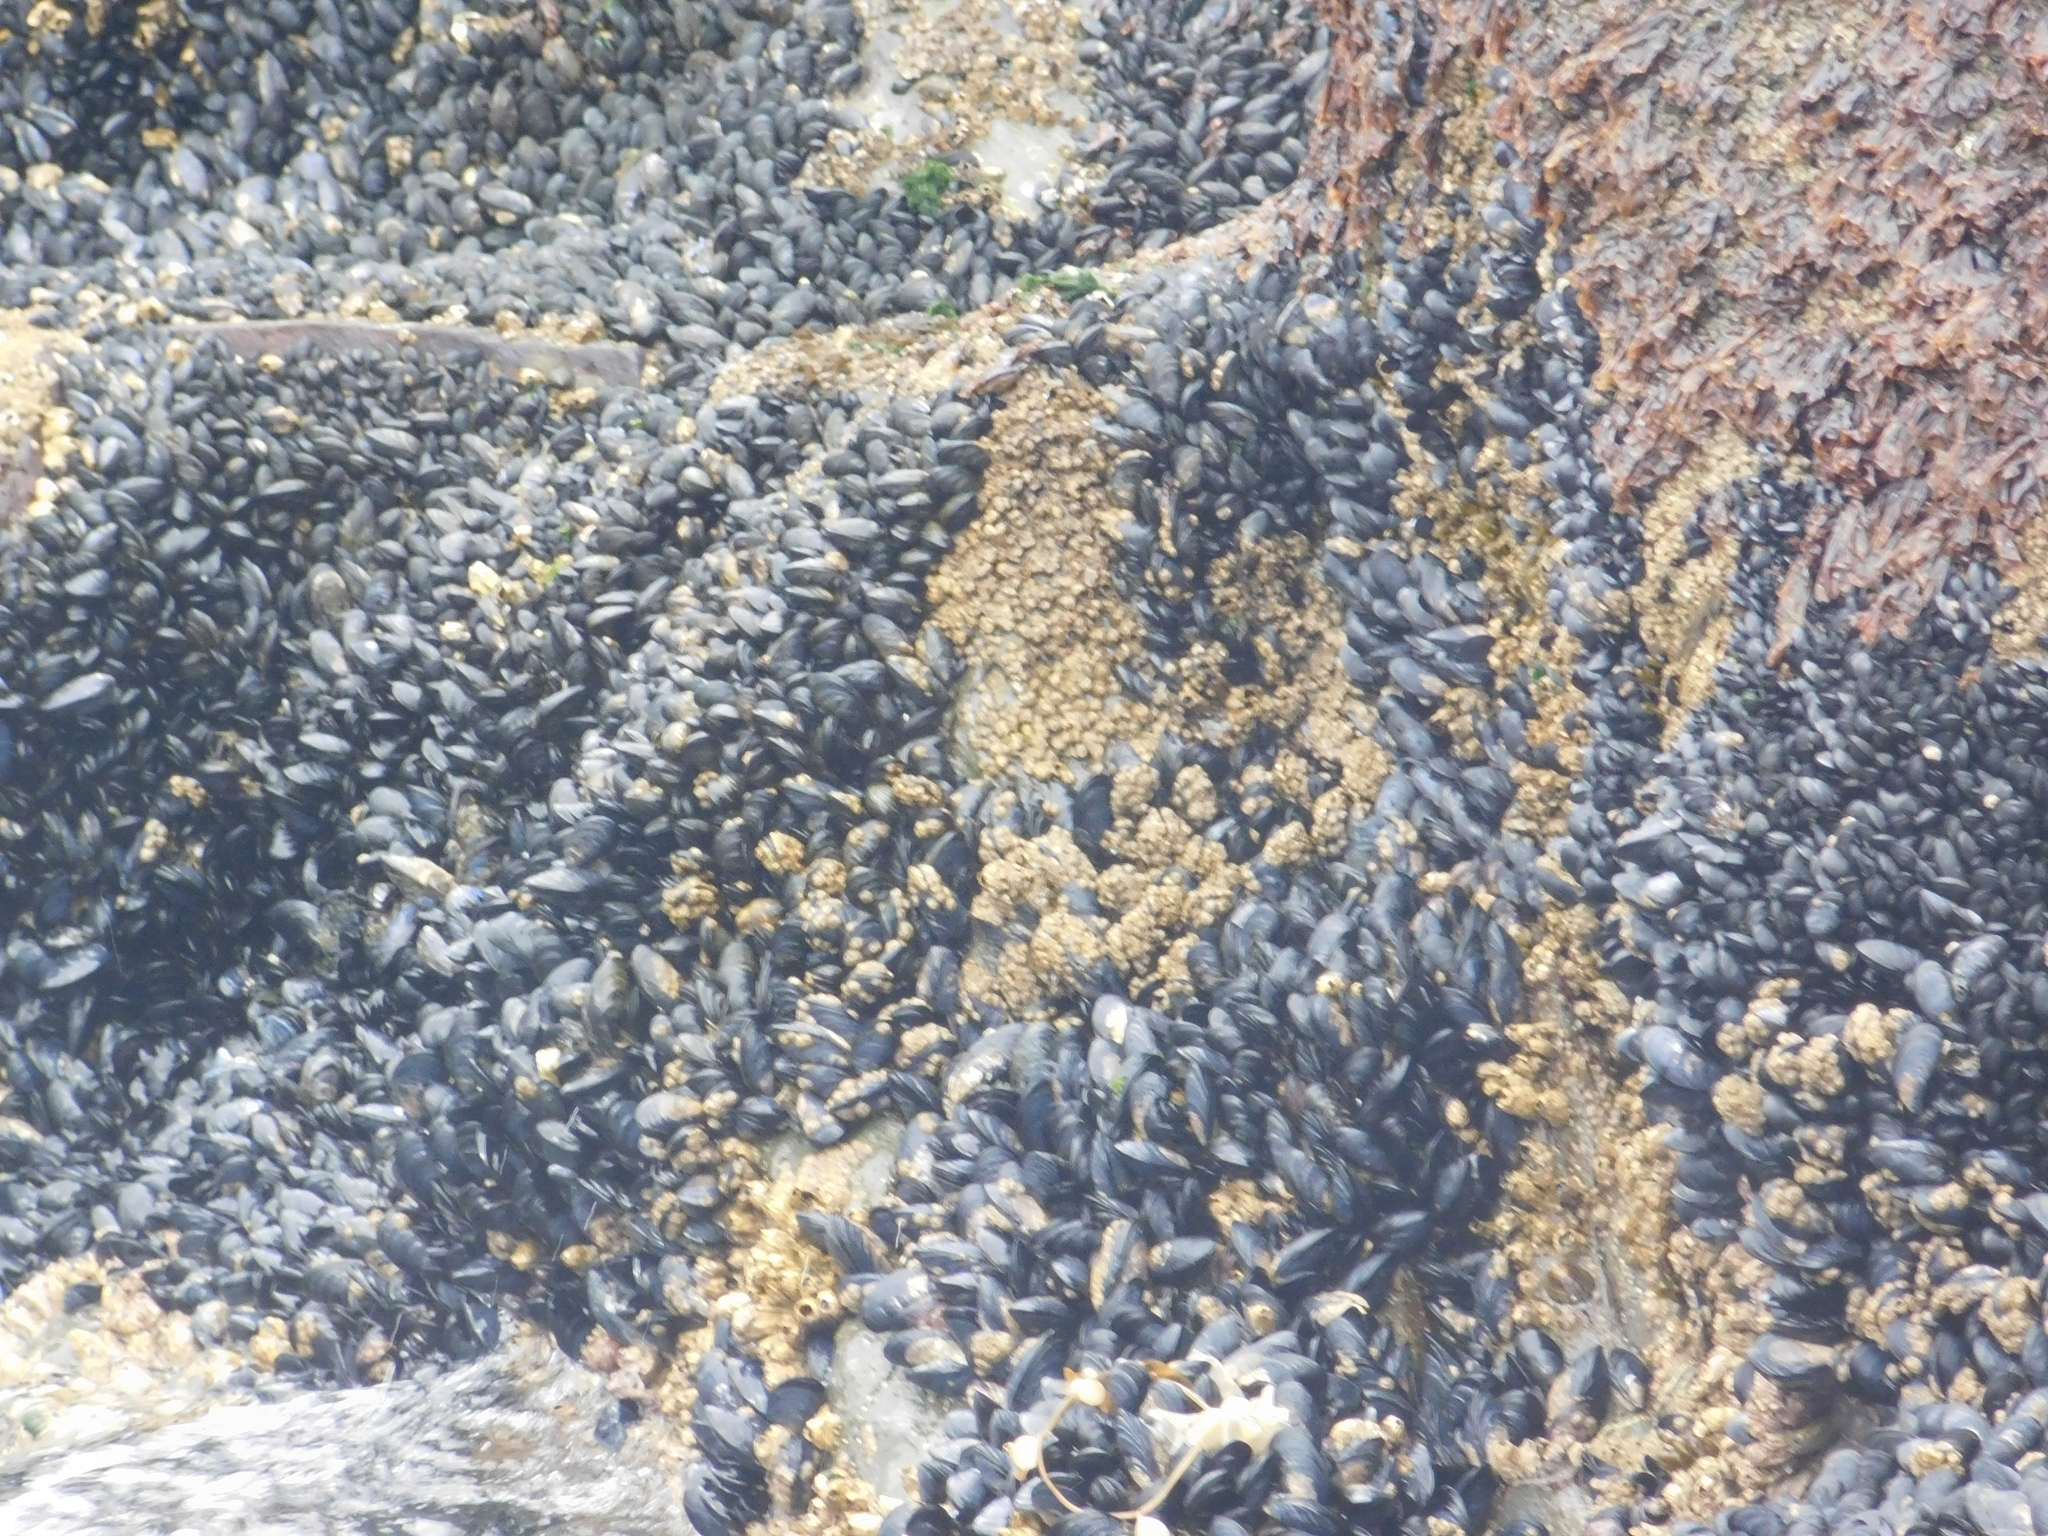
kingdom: Animalia
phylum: Mollusca
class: Bivalvia
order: Mytilida
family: Mytilidae
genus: Mytilus
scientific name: Mytilus chilensis
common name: Chilean mussel
